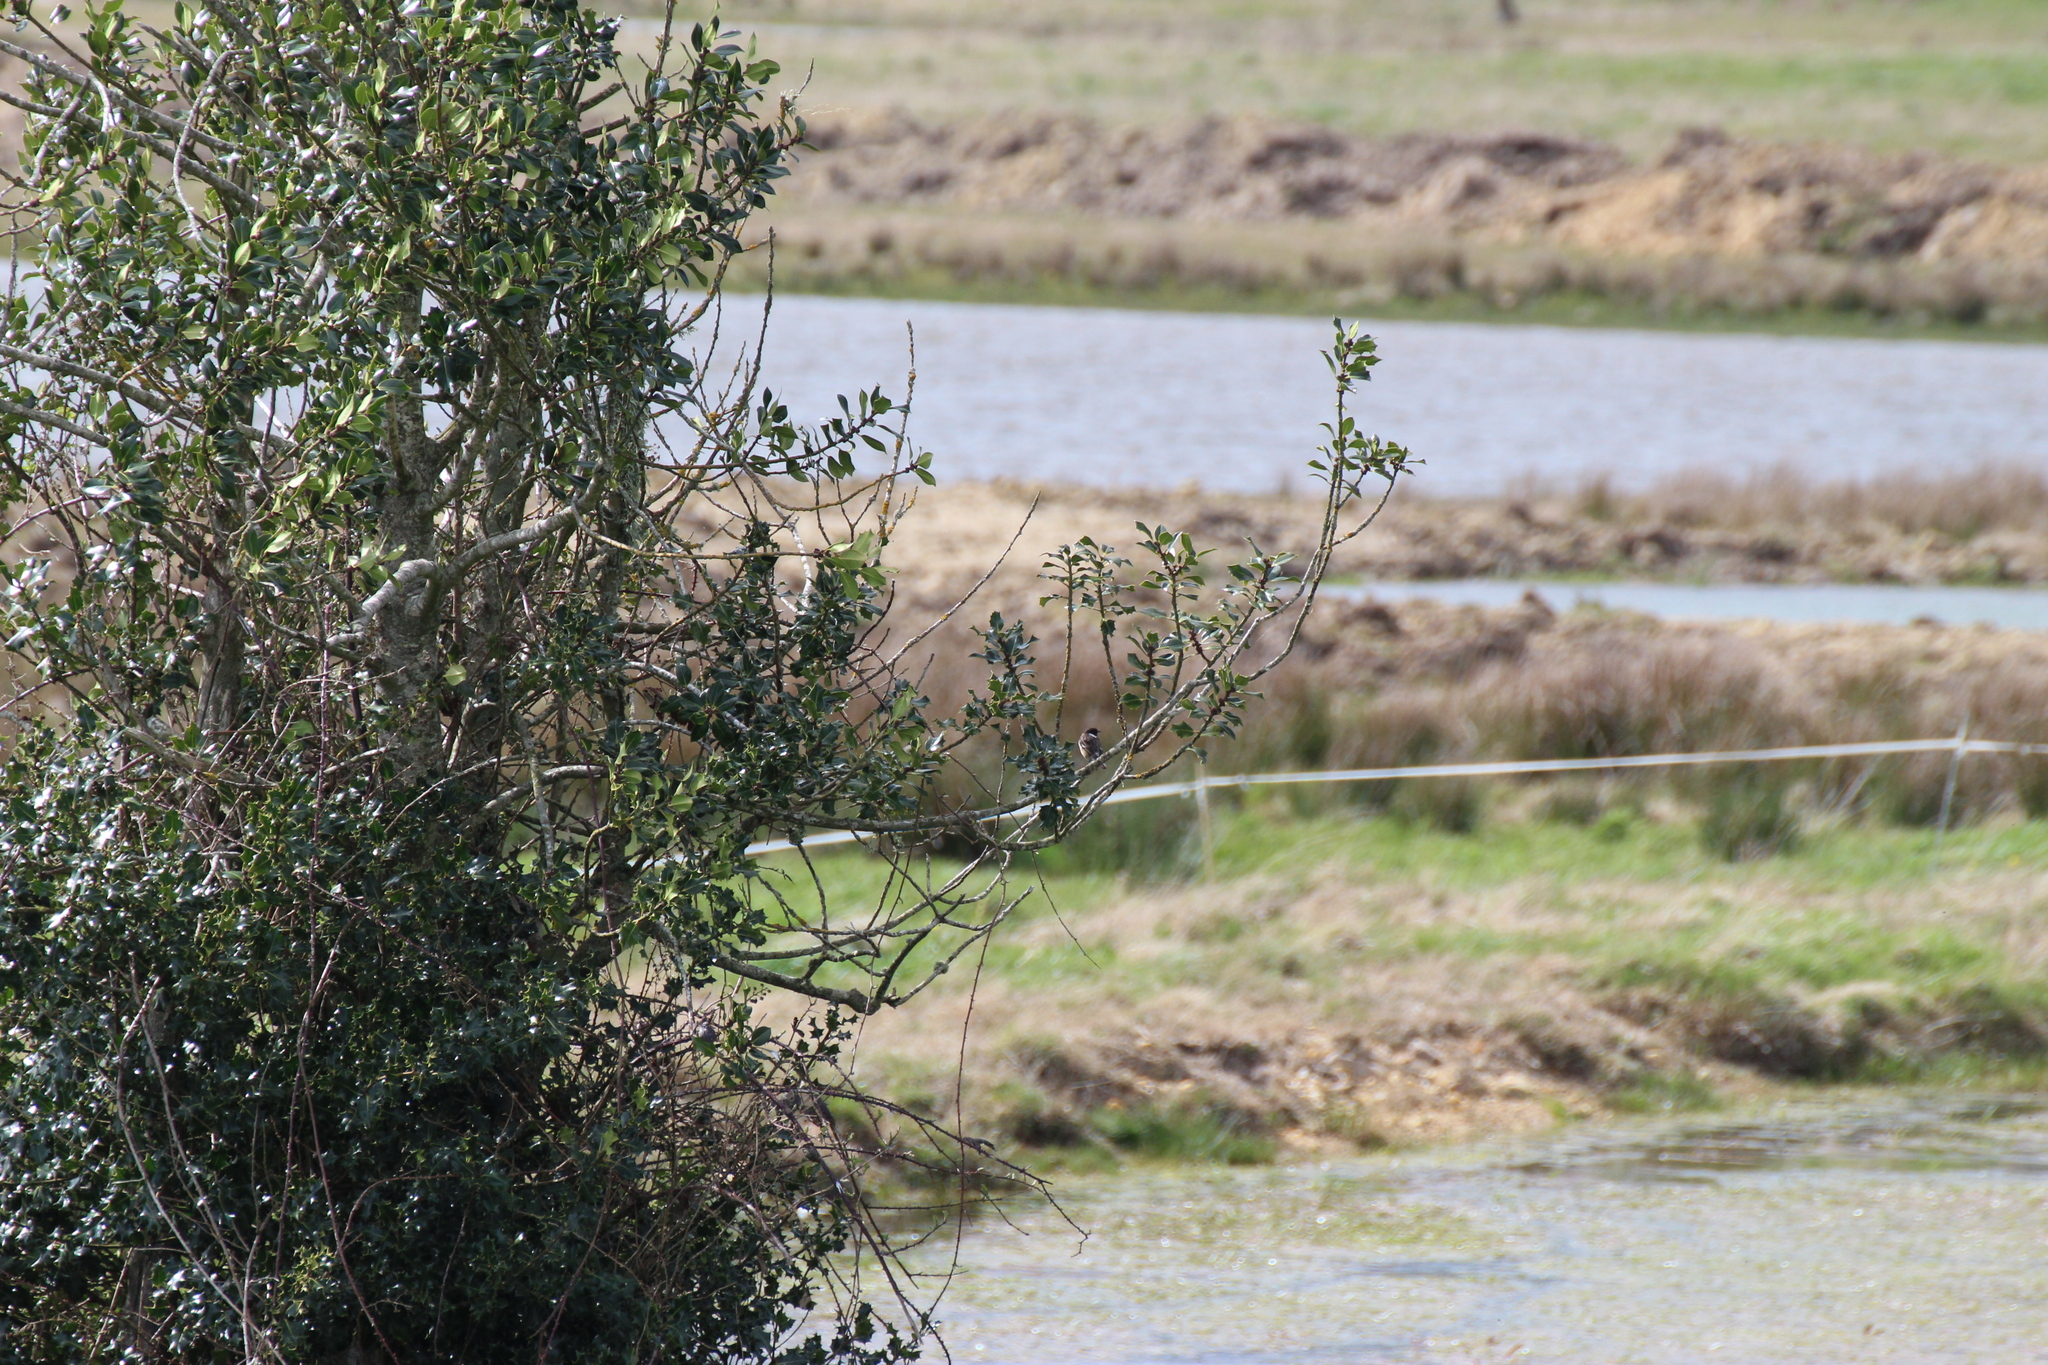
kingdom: Animalia
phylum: Chordata
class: Aves
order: Passeriformes
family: Muscicapidae
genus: Saxicola
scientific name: Saxicola rubicola
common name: European stonechat
